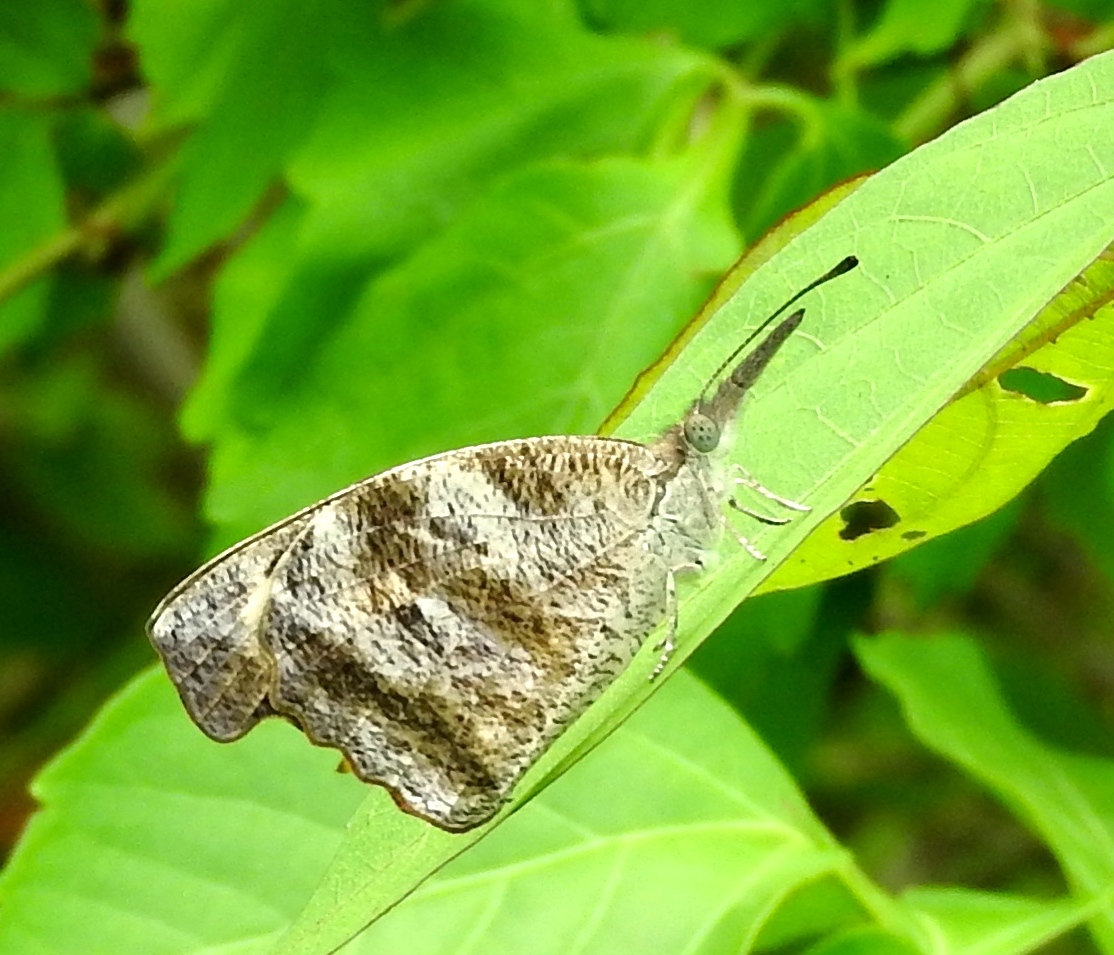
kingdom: Animalia
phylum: Arthropoda
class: Insecta
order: Lepidoptera
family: Nymphalidae
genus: Libytheana
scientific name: Libytheana carinenta
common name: American snout
